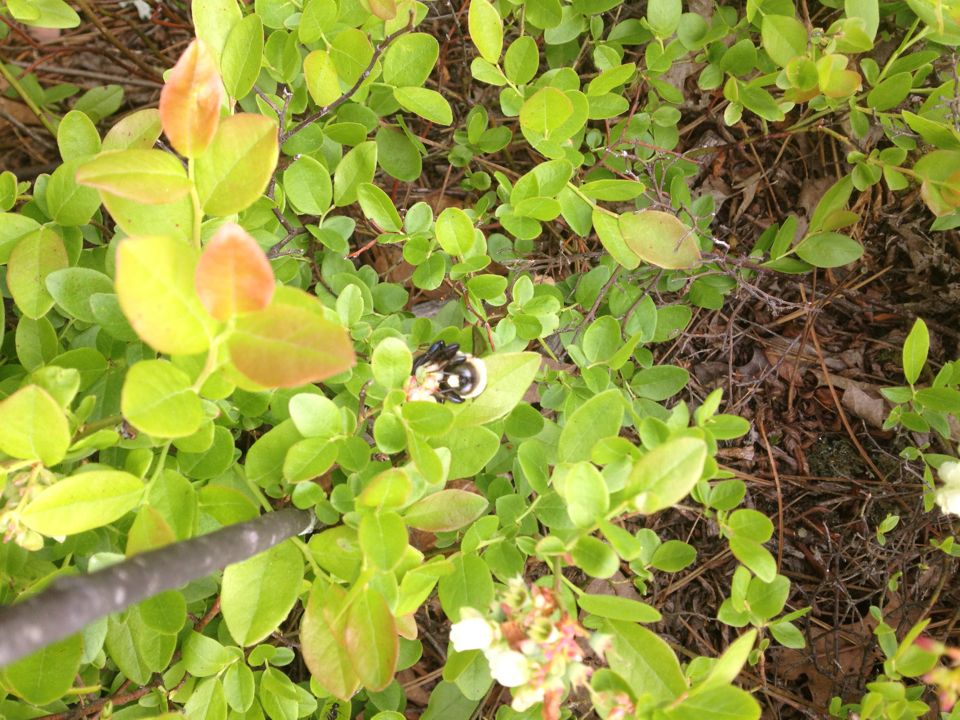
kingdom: Animalia
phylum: Arthropoda
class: Insecta
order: Hymenoptera
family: Apidae
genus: Xylocopa
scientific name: Xylocopa virginica
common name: Carpenter bee
